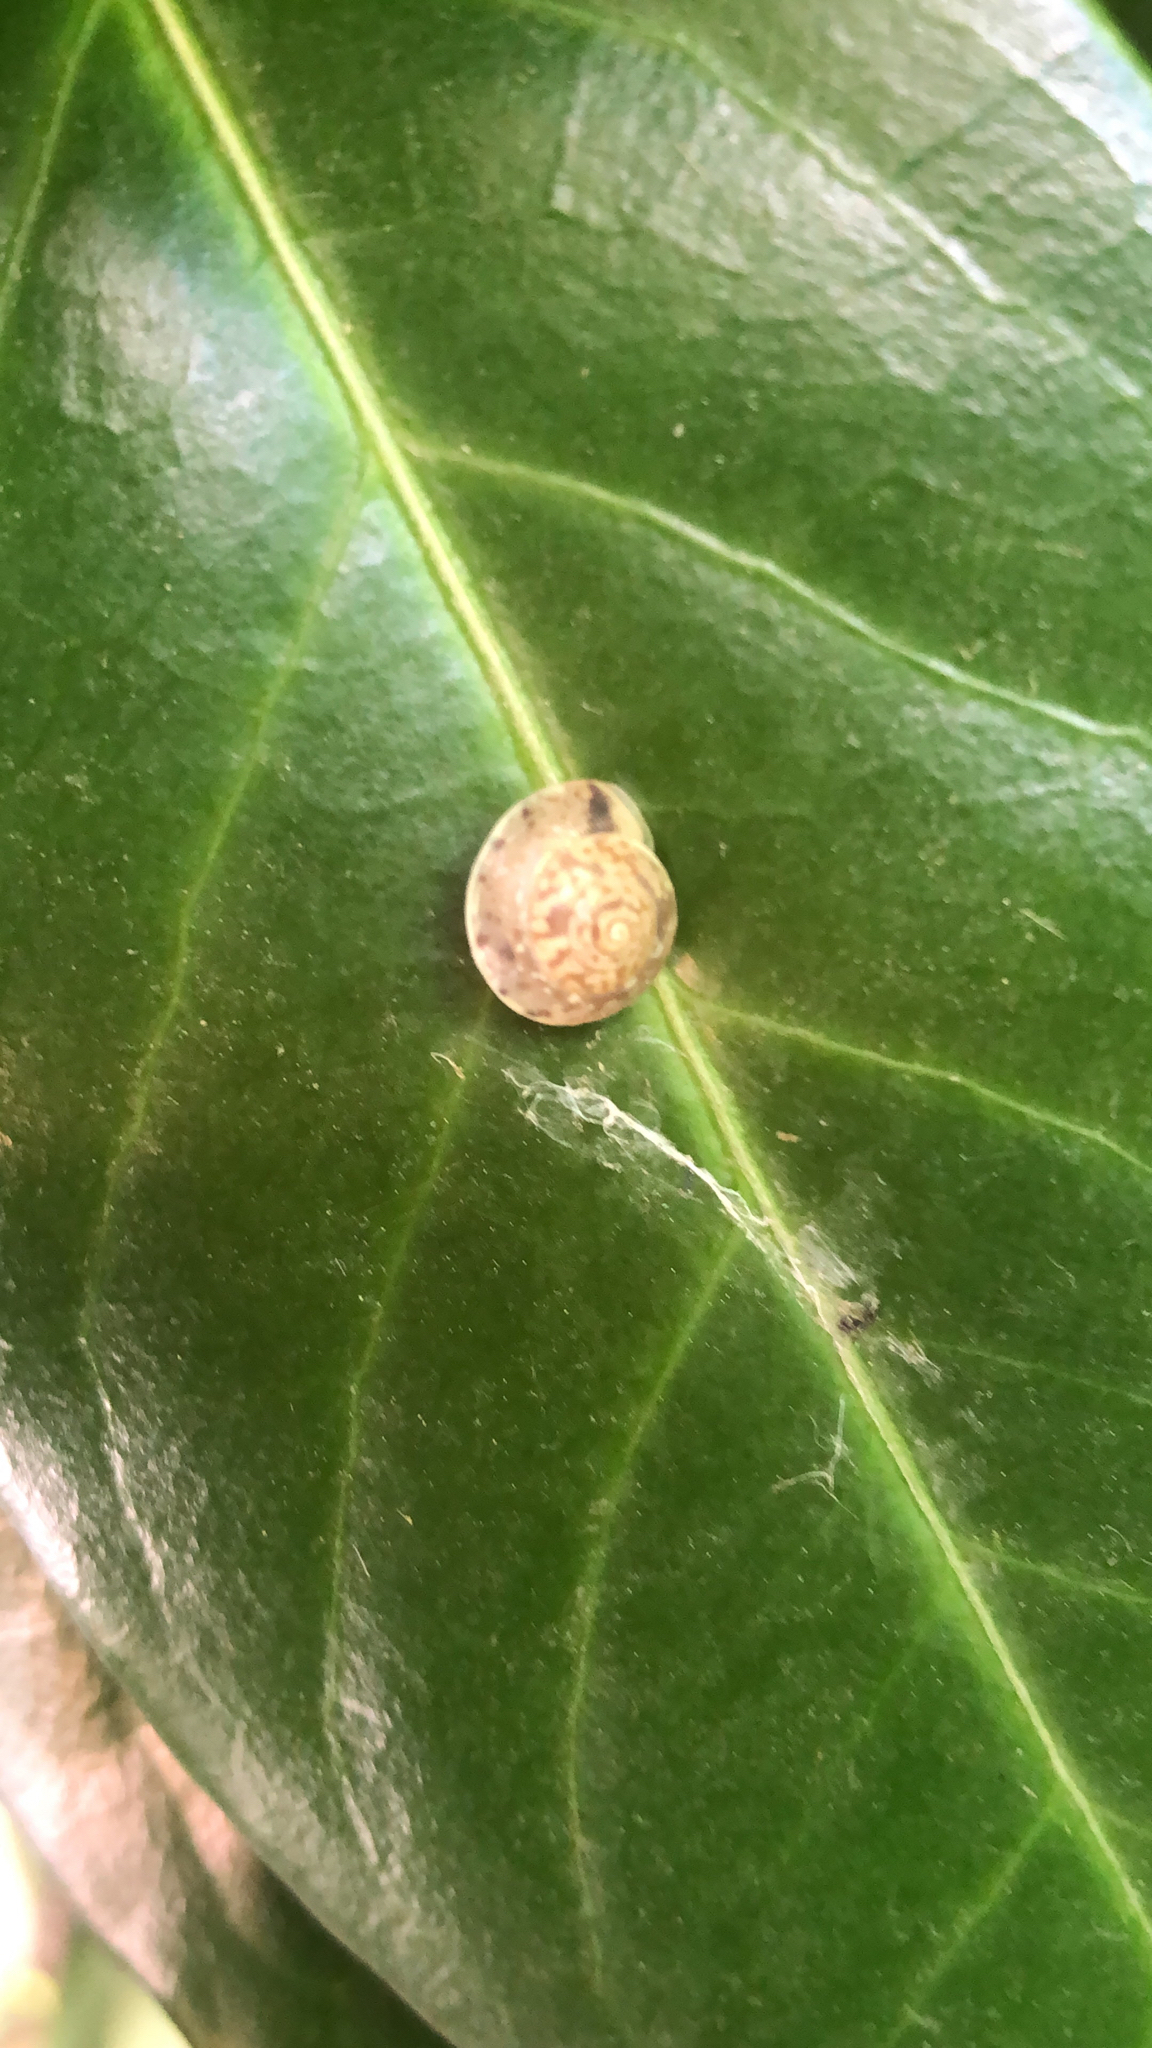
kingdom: Animalia
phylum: Mollusca
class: Gastropoda
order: Stylommatophora
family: Hygromiidae
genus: Hygromia
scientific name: Hygromia cinctella
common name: Girdled snail
